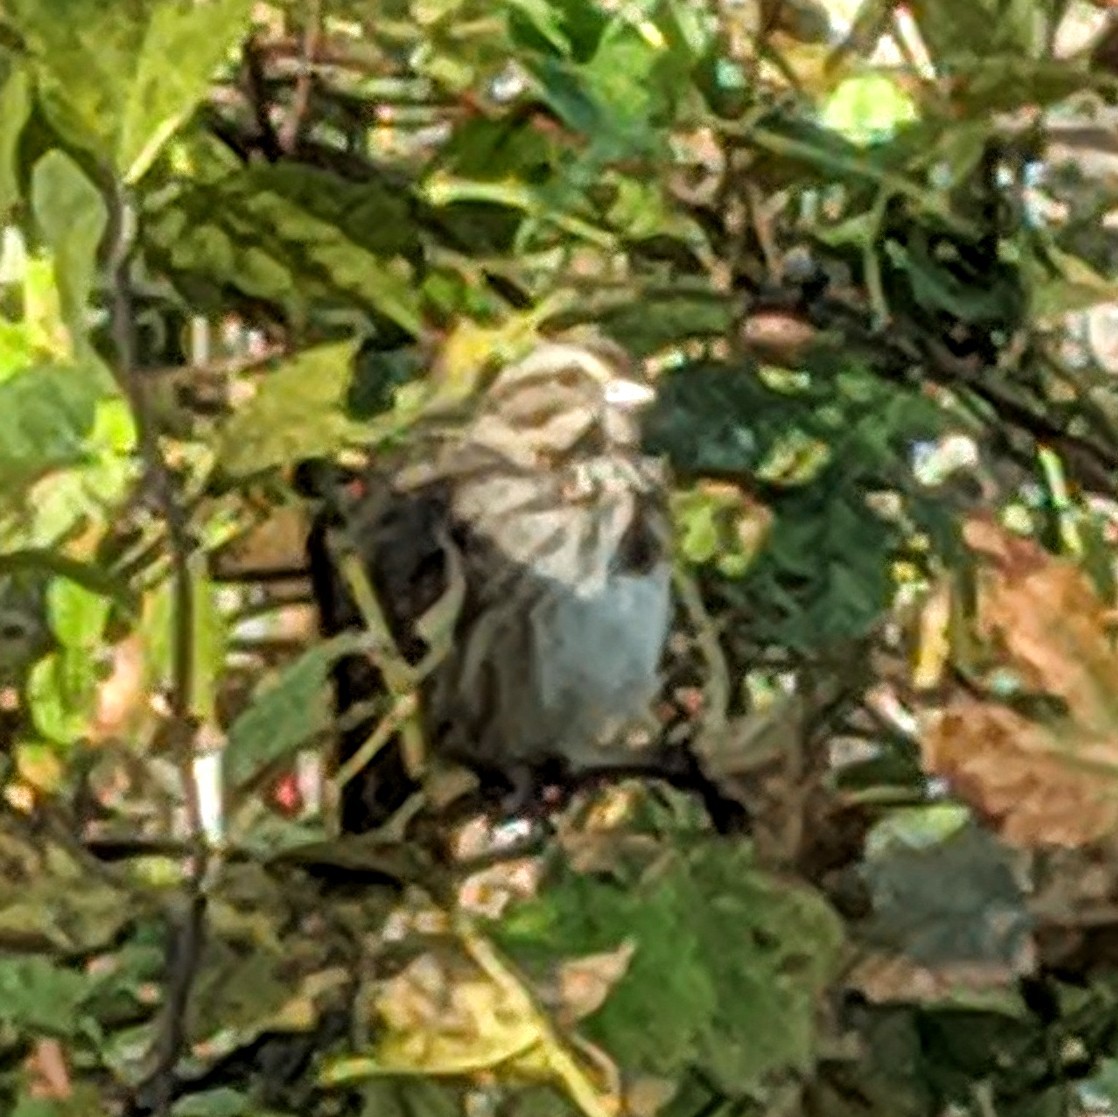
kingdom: Animalia
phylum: Chordata
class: Aves
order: Passeriformes
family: Passerellidae
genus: Melospiza
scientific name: Melospiza melodia
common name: Song sparrow
